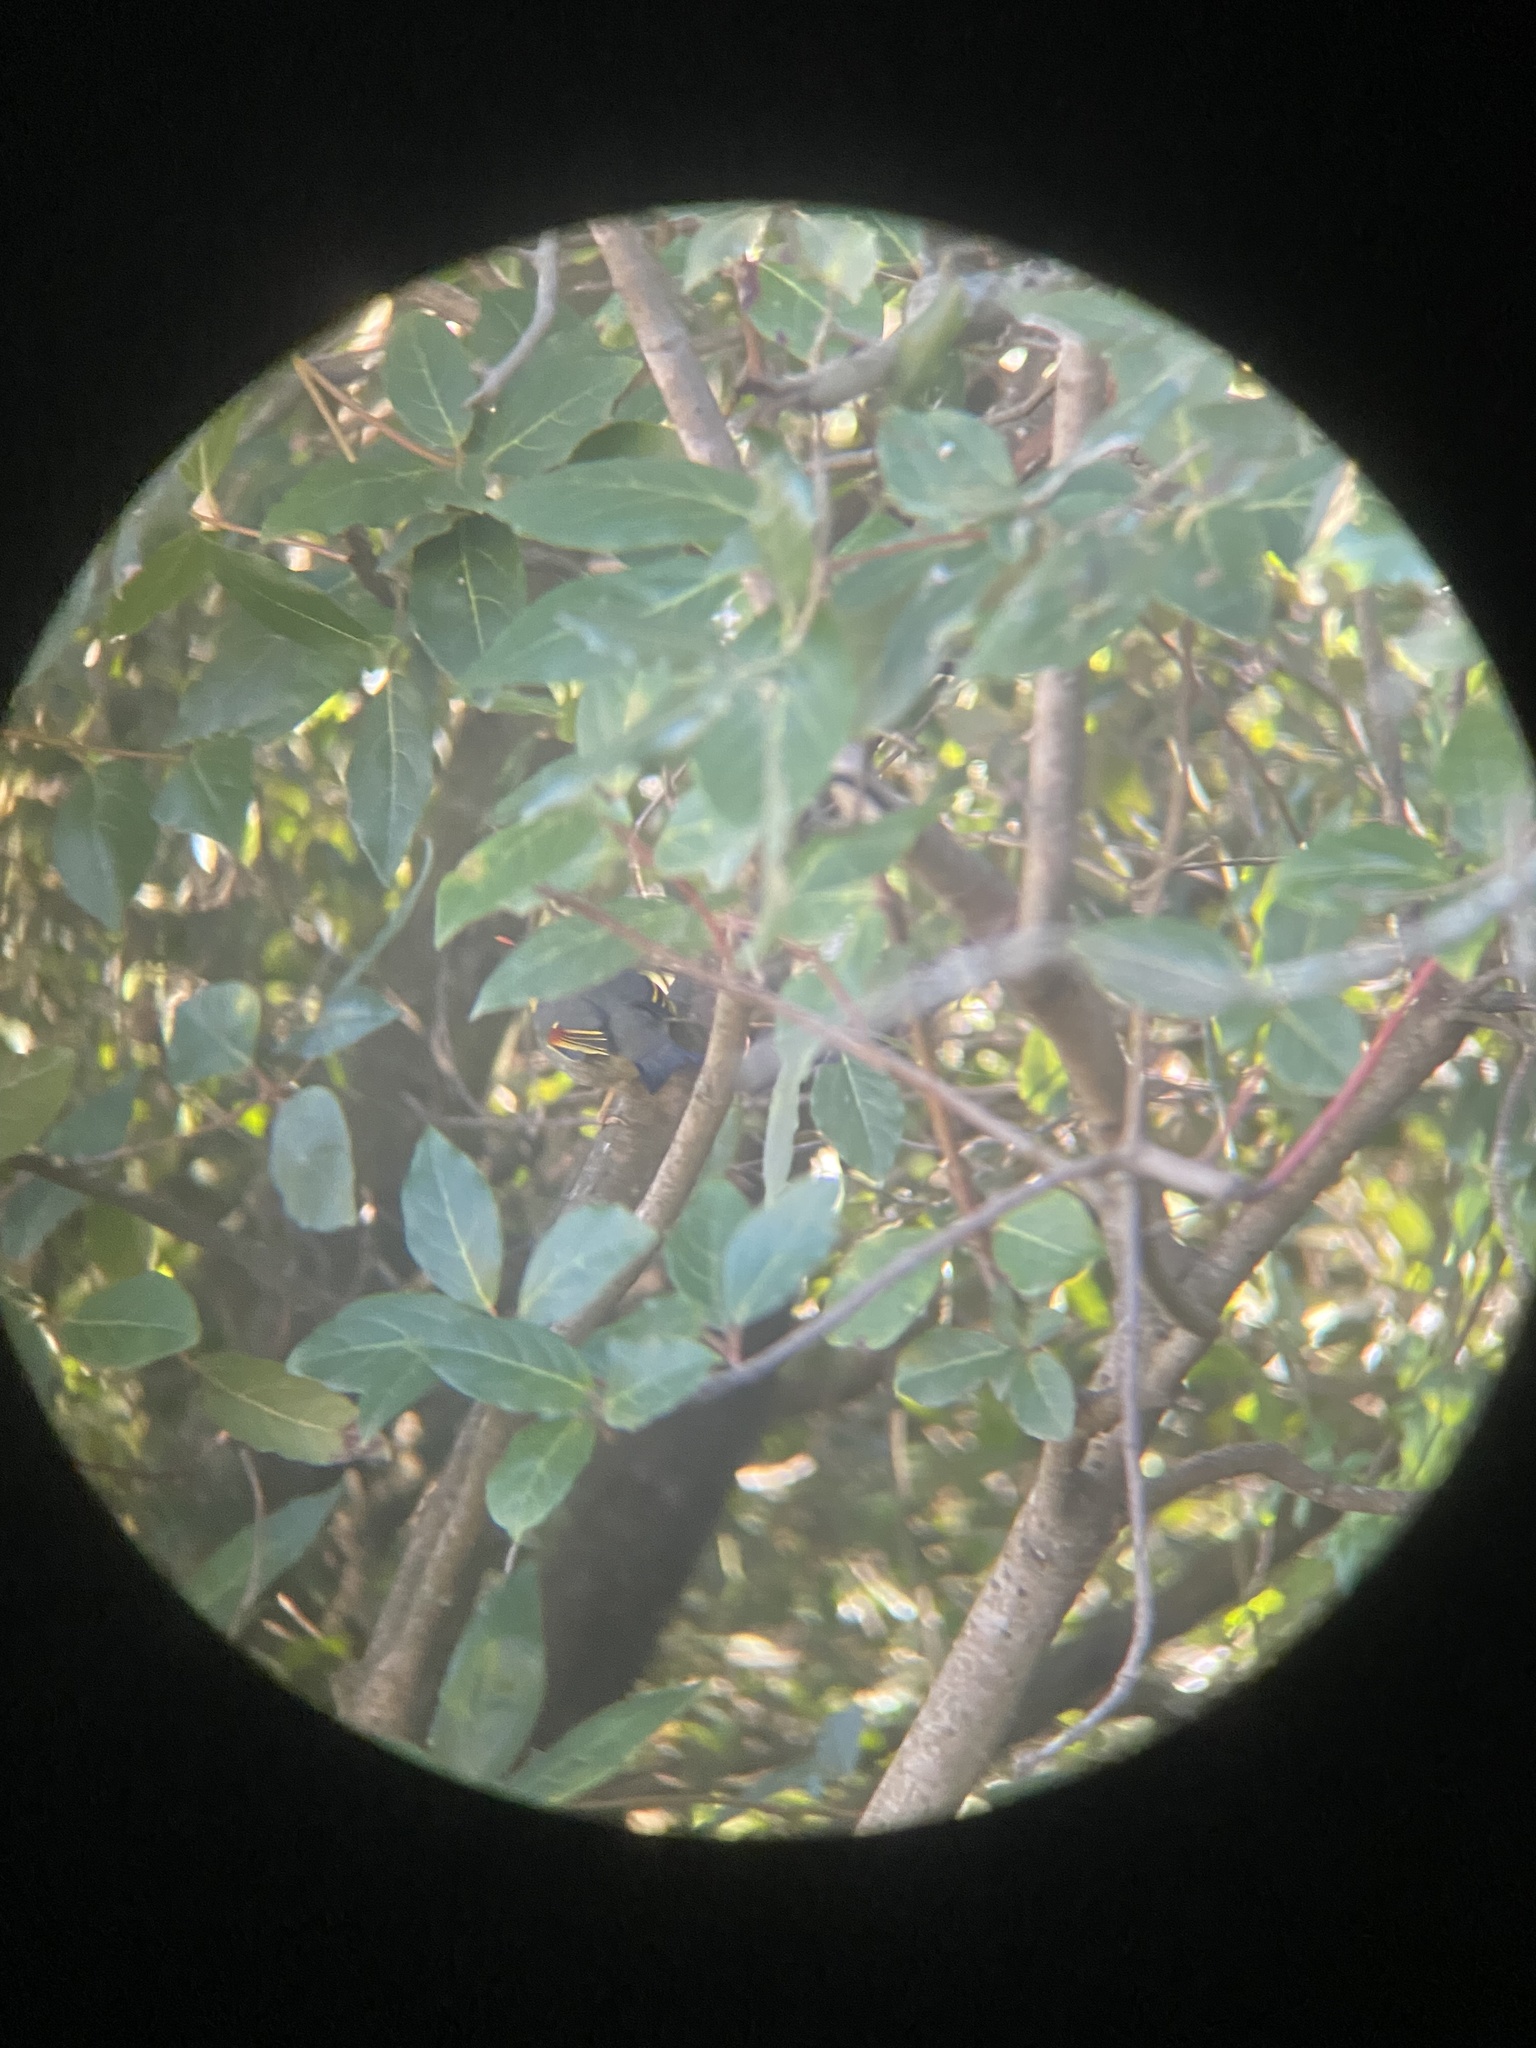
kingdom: Animalia
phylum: Chordata
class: Aves
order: Passeriformes
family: Leiothrichidae
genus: Leiothrix
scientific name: Leiothrix lutea
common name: Red-billed leiothrix
